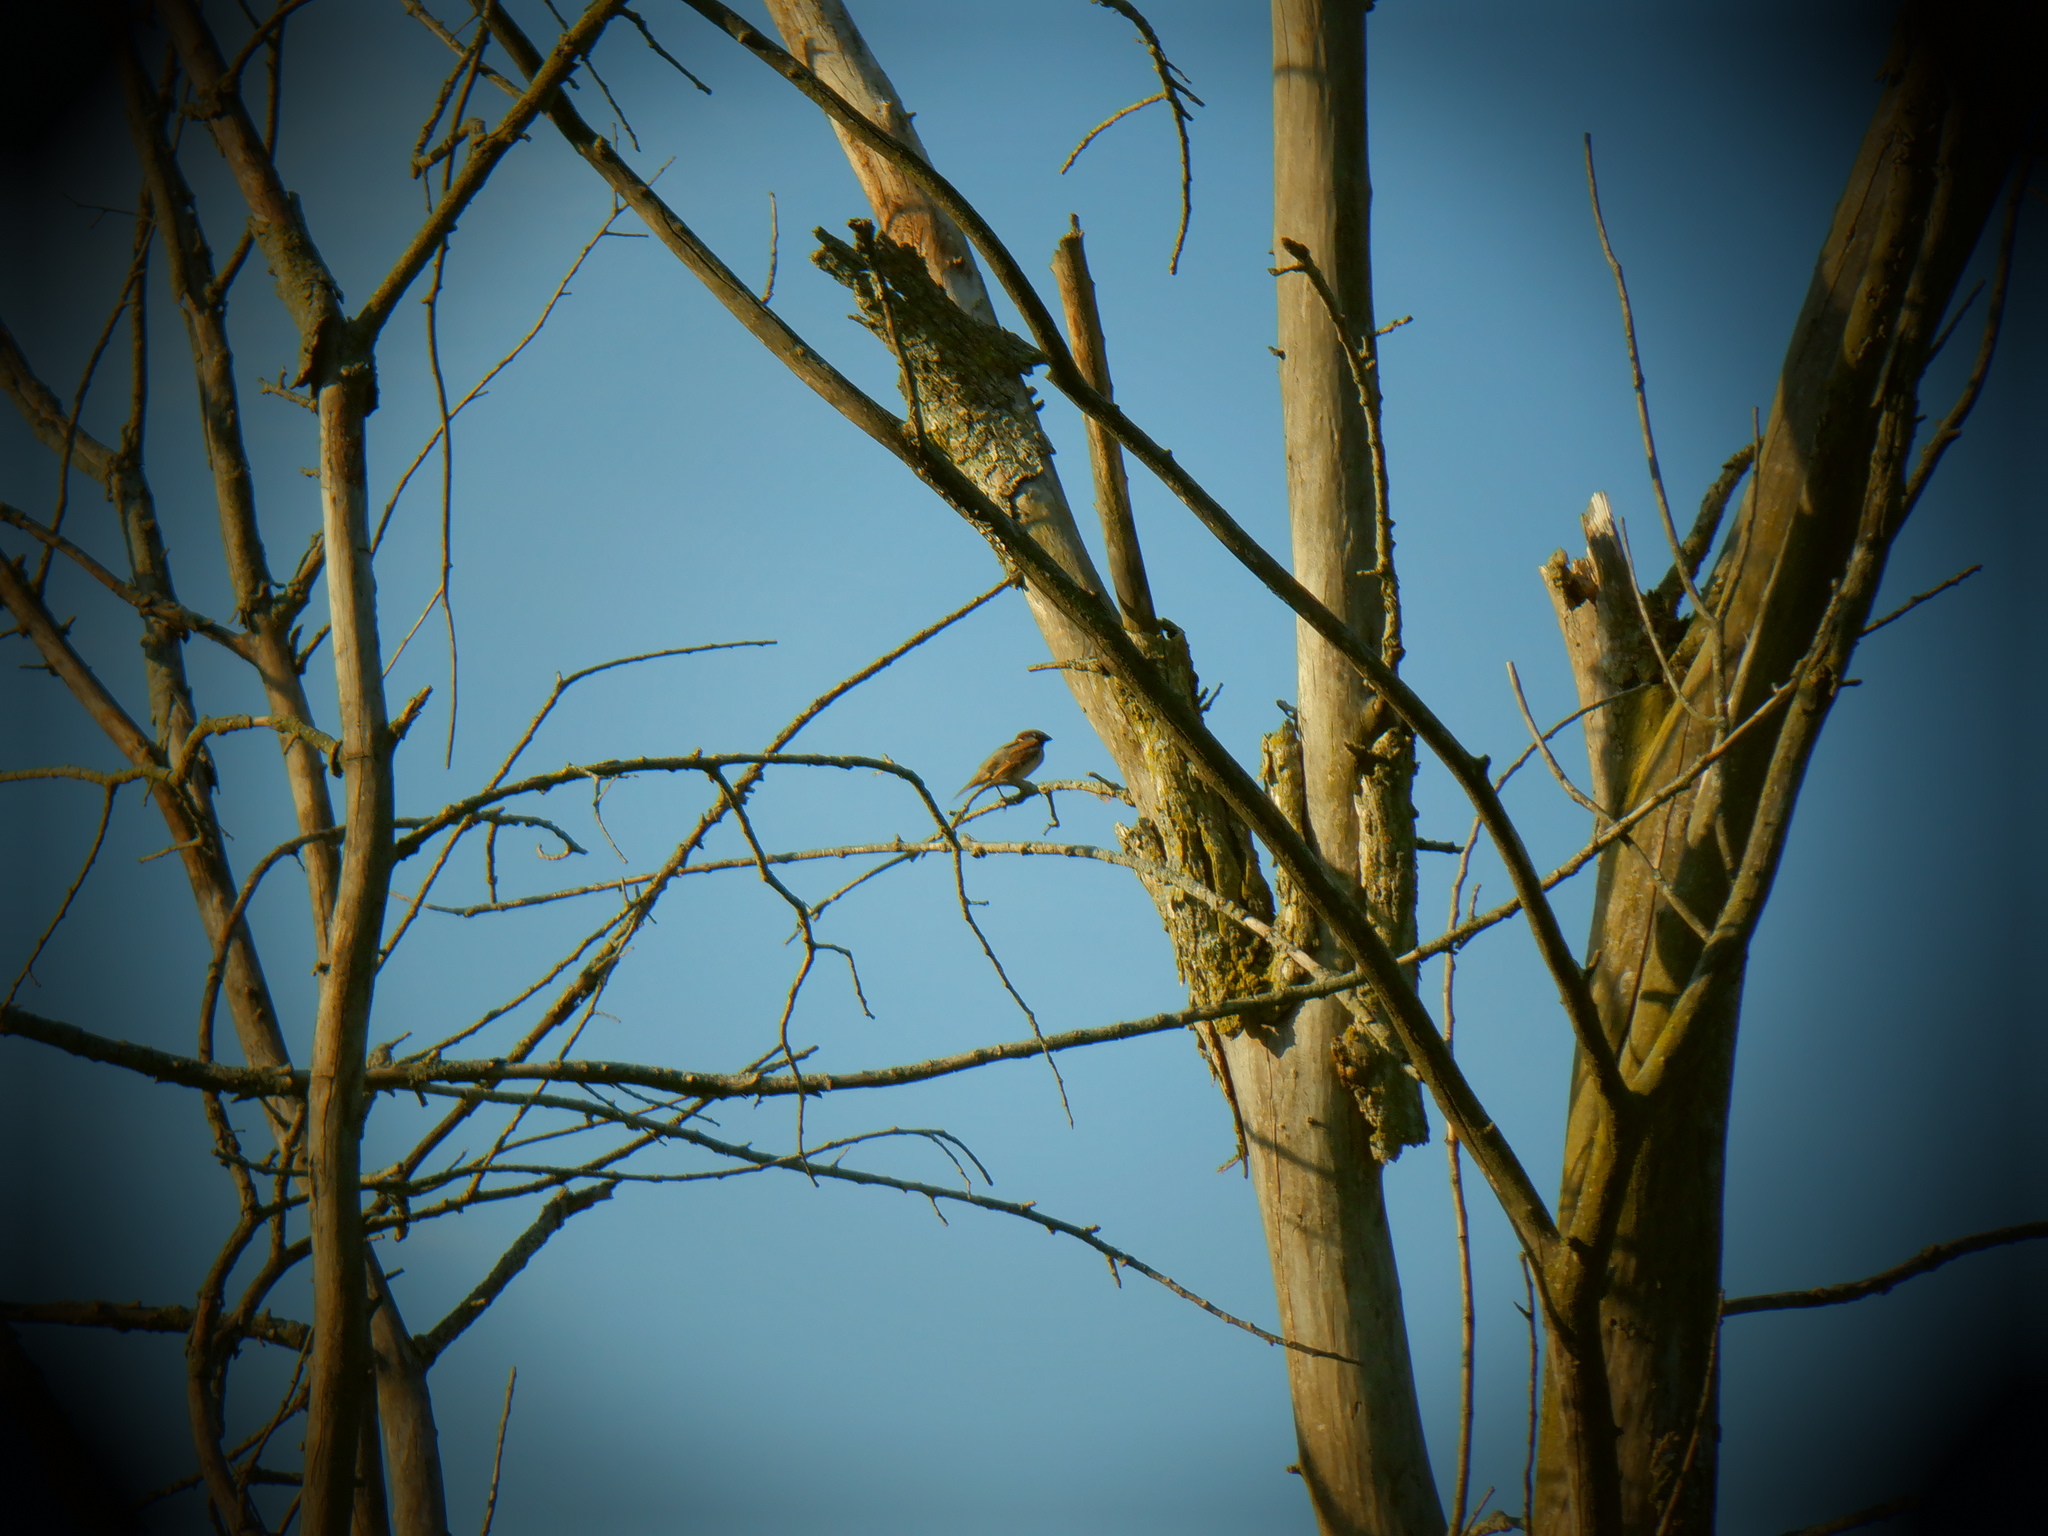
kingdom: Animalia
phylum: Chordata
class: Aves
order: Passeriformes
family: Passeridae
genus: Passer
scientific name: Passer domesticus
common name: House sparrow
